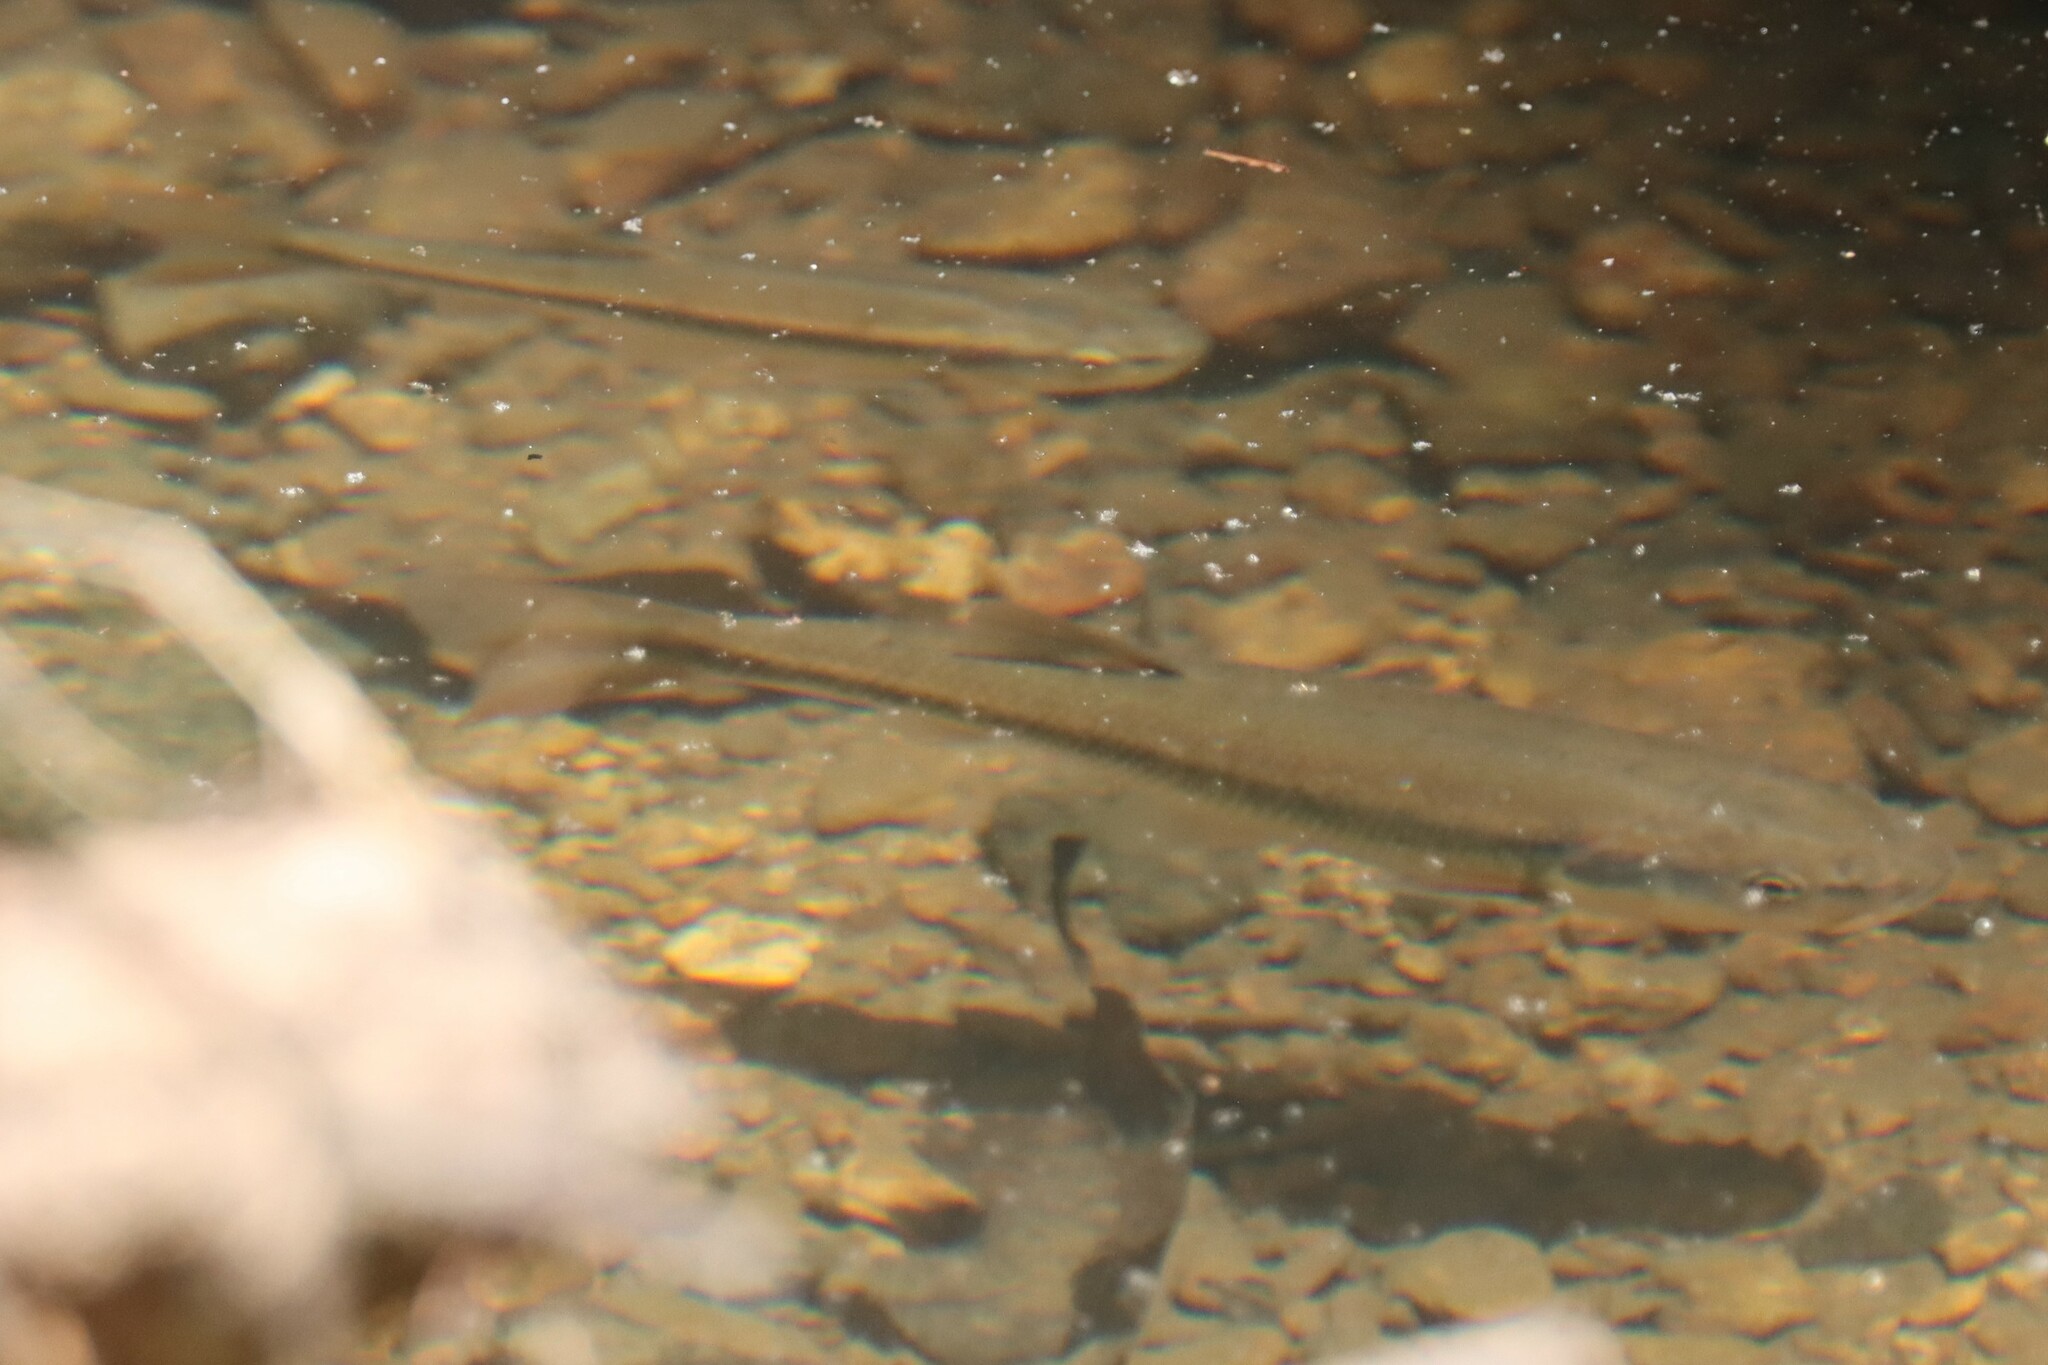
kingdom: Animalia
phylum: Chordata
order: Cypriniformes
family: Cyprinidae
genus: Semotilus
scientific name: Semotilus atromaculatus
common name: Creek chub
